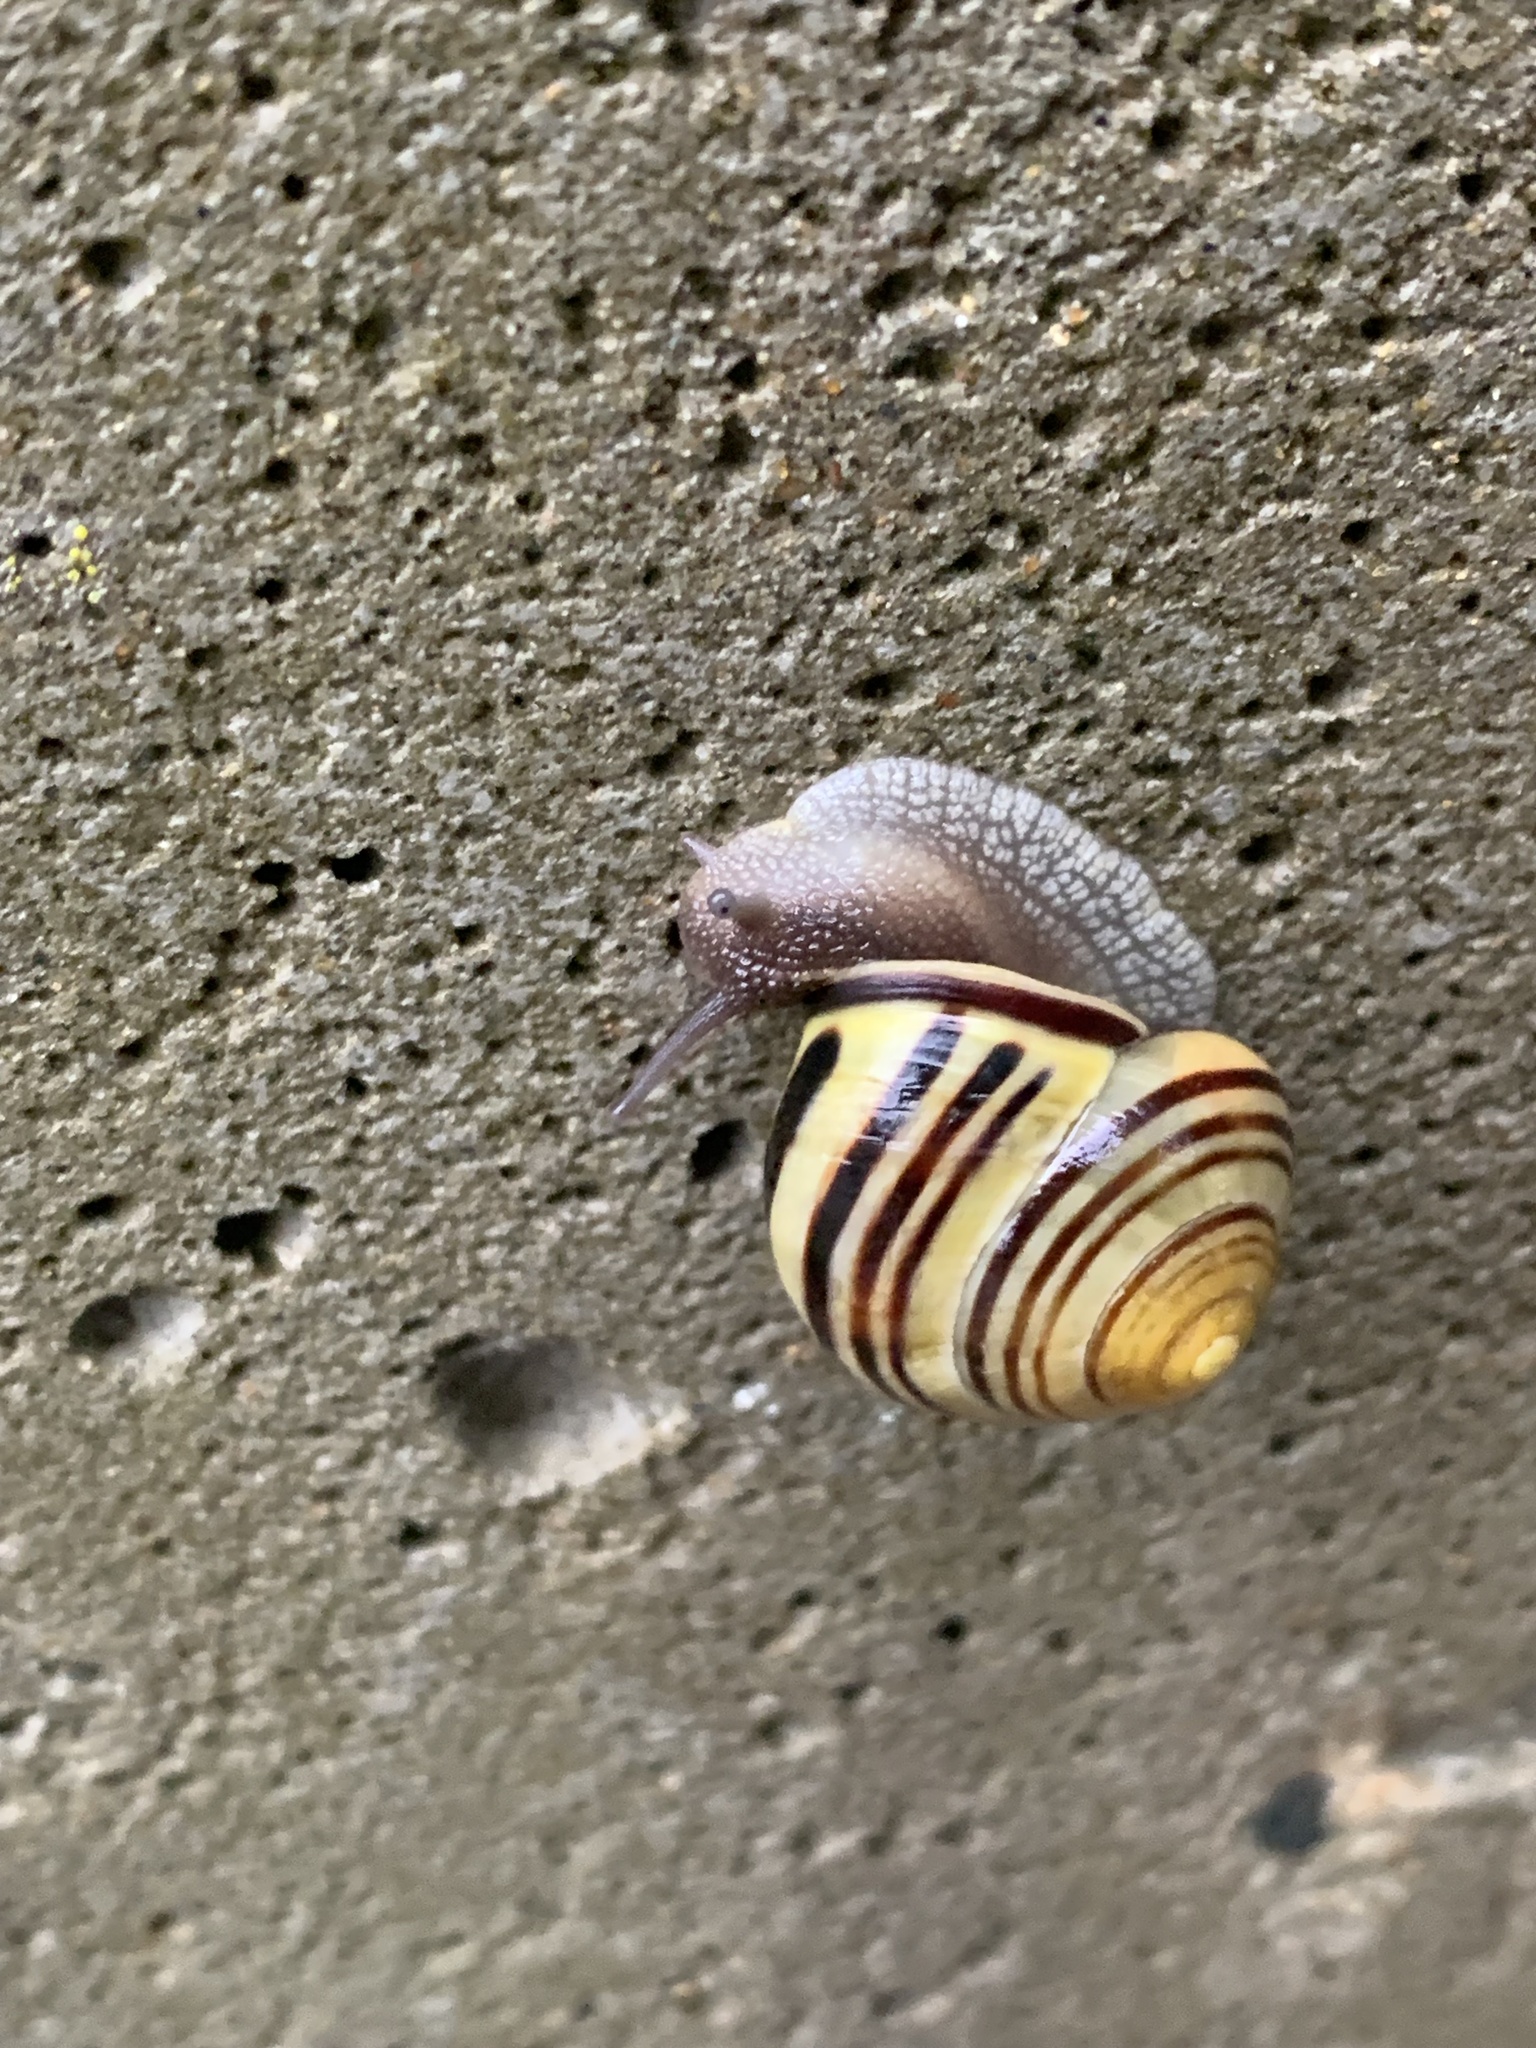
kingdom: Animalia
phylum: Mollusca
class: Gastropoda
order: Stylommatophora
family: Helicidae
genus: Cepaea
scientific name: Cepaea nemoralis
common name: Grovesnail
